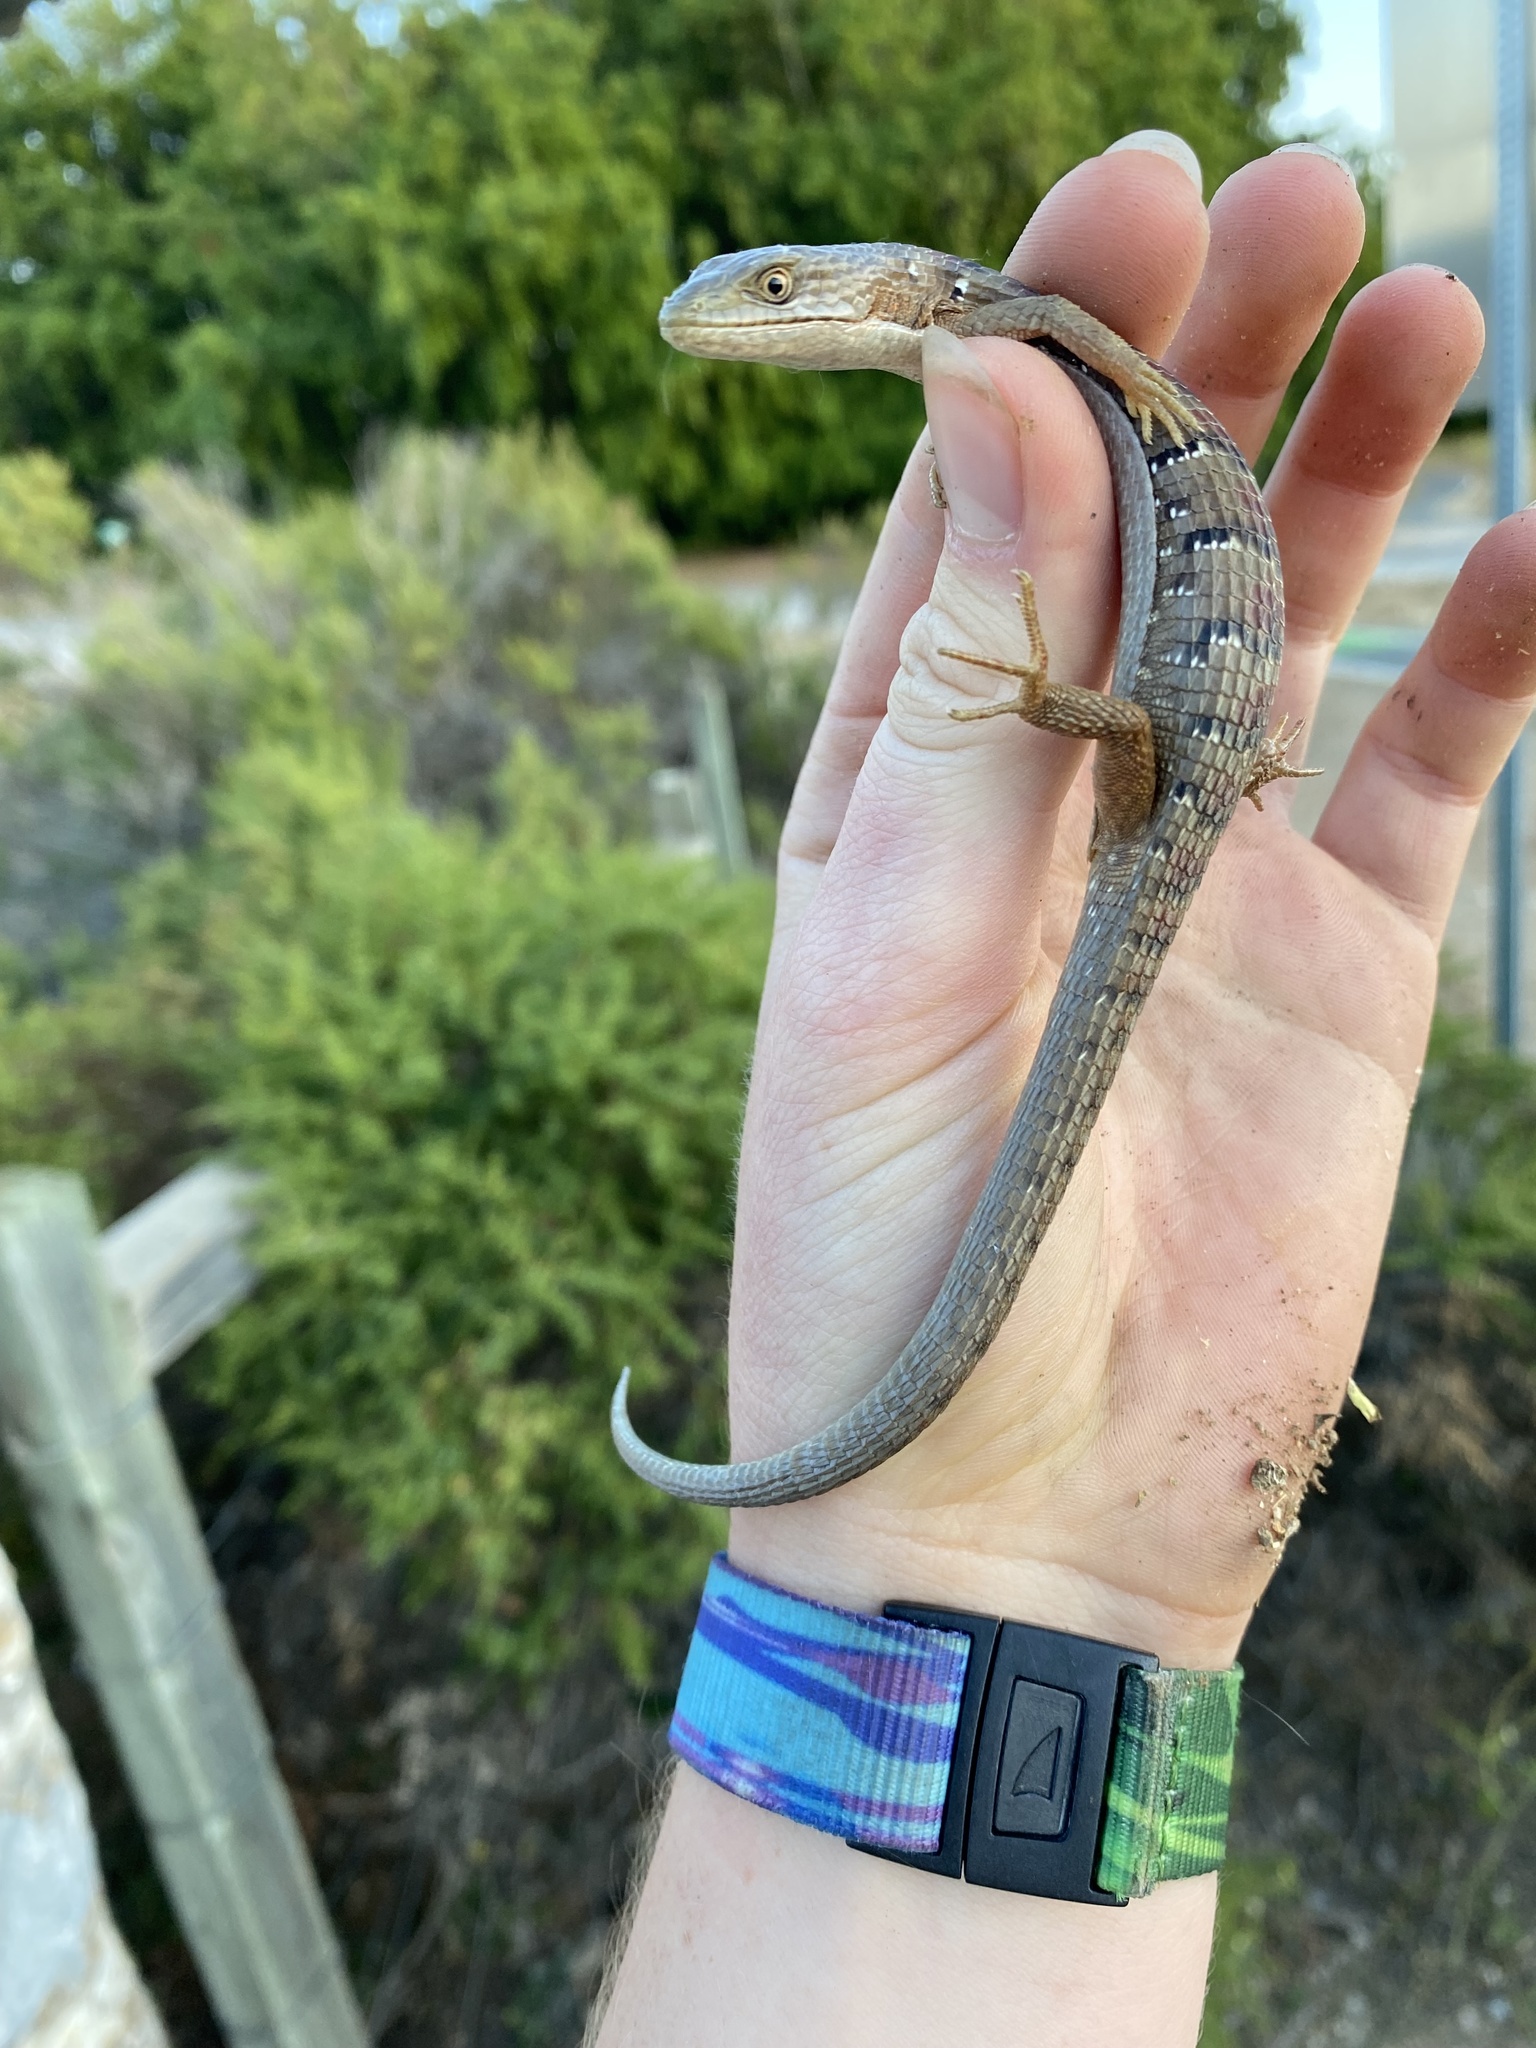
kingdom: Animalia
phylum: Chordata
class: Squamata
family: Anguidae
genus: Elgaria
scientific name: Elgaria multicarinata
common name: Southern alligator lizard
